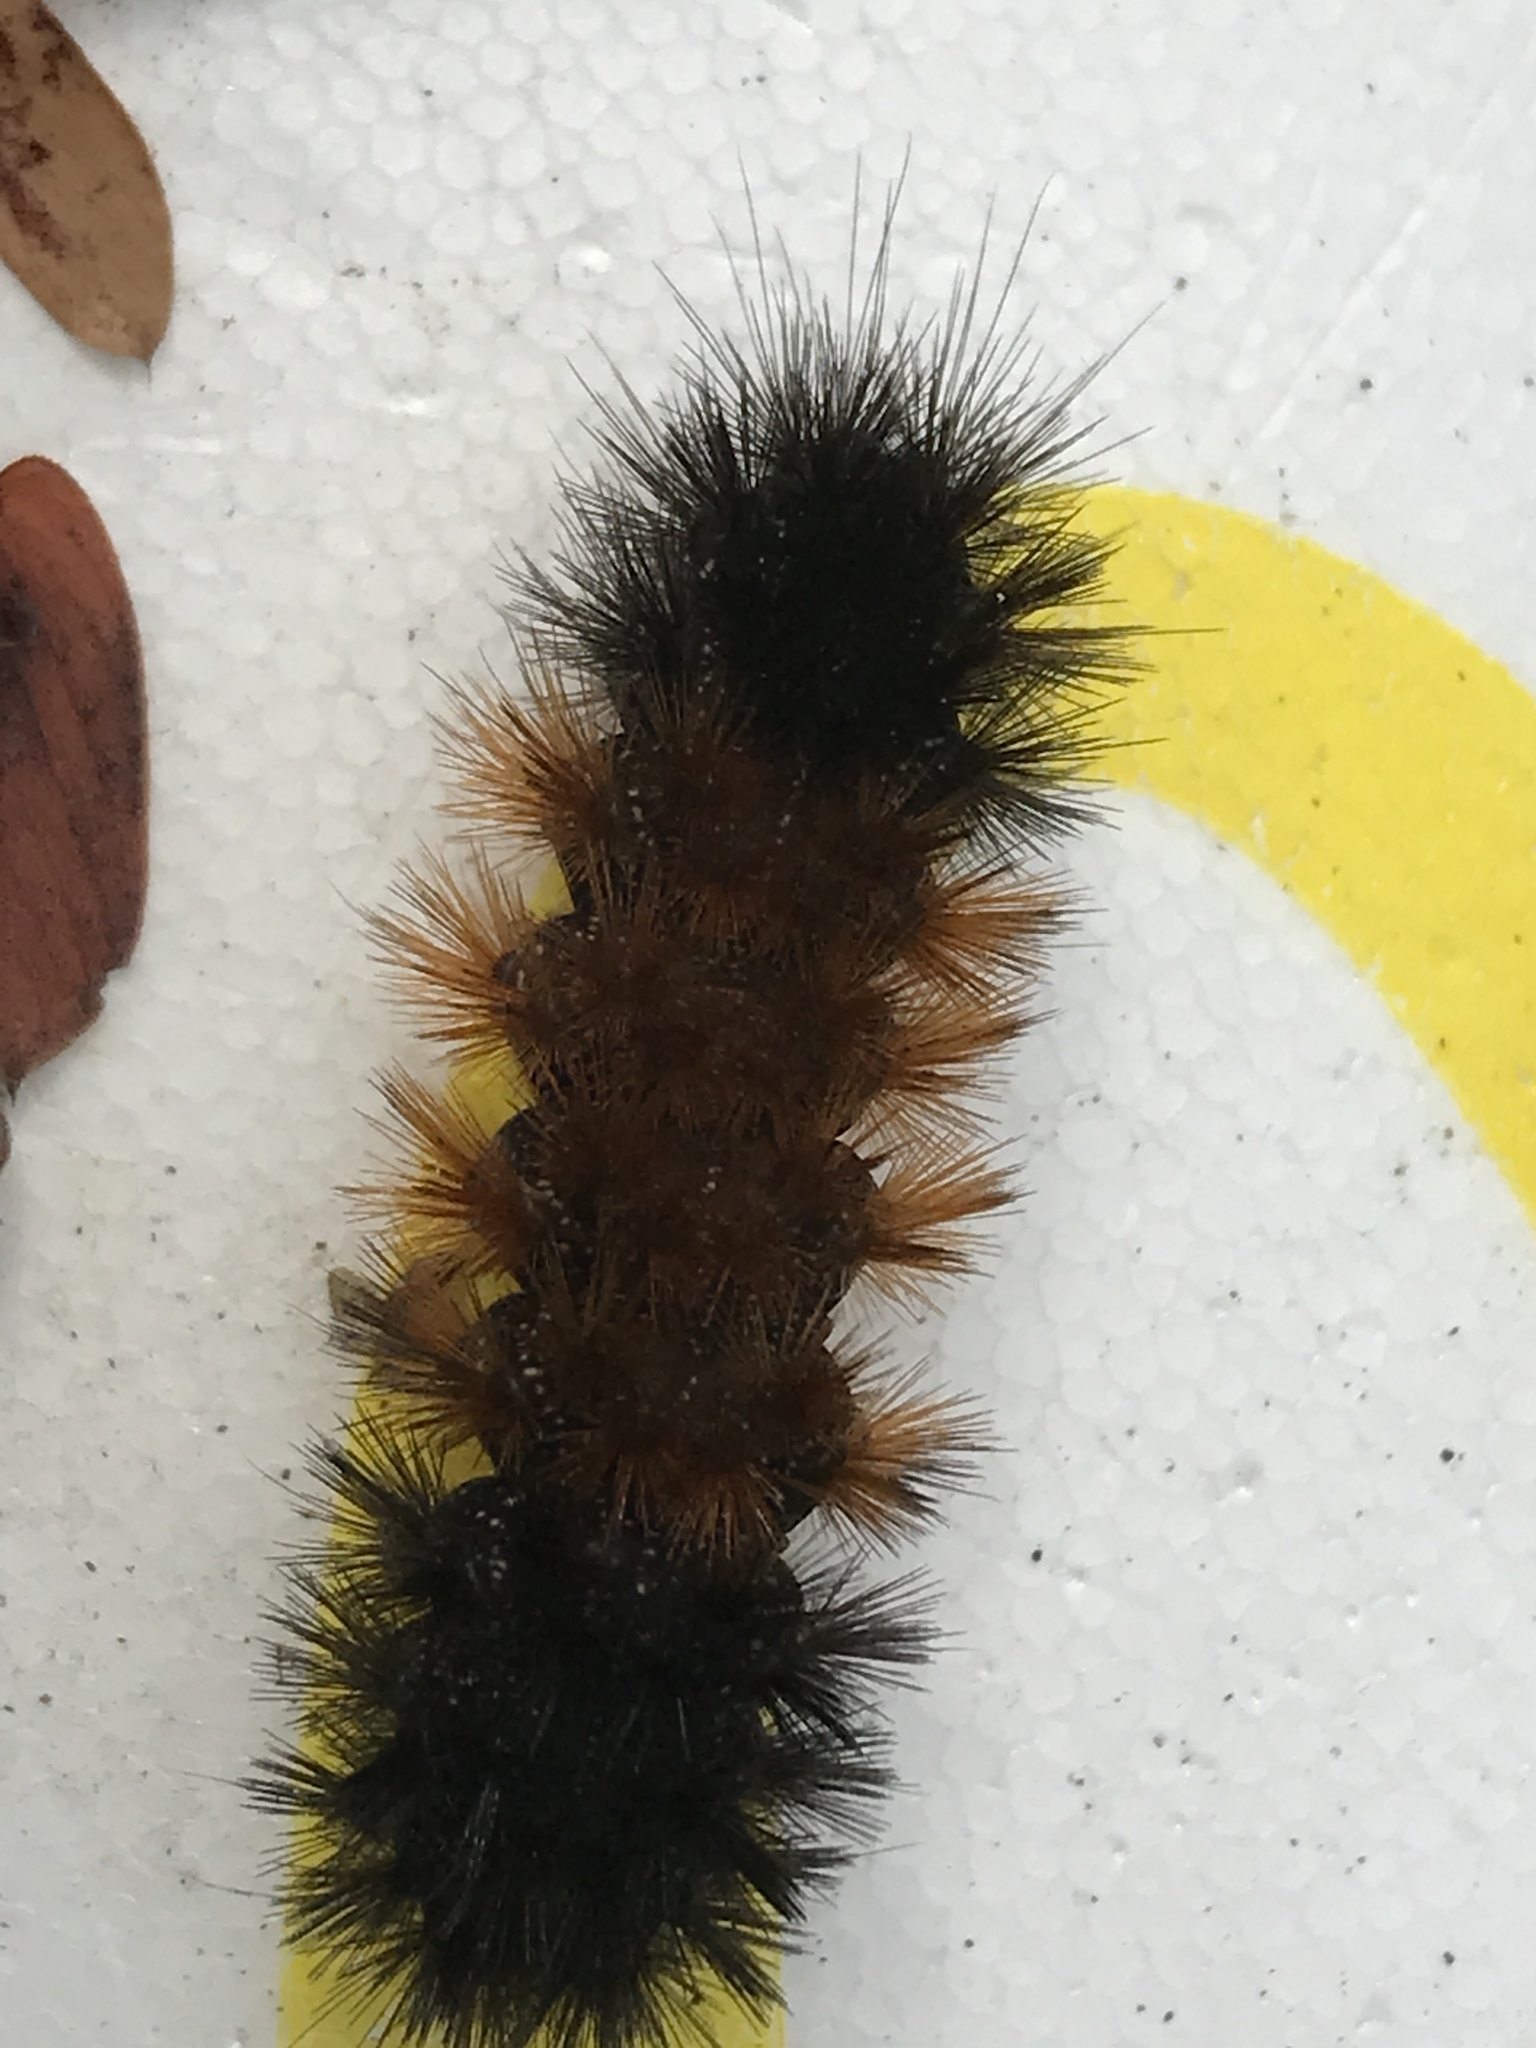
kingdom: Animalia
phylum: Arthropoda
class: Insecta
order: Lepidoptera
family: Erebidae
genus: Pyrrharctia
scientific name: Pyrrharctia isabella
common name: Isabella tiger moth
